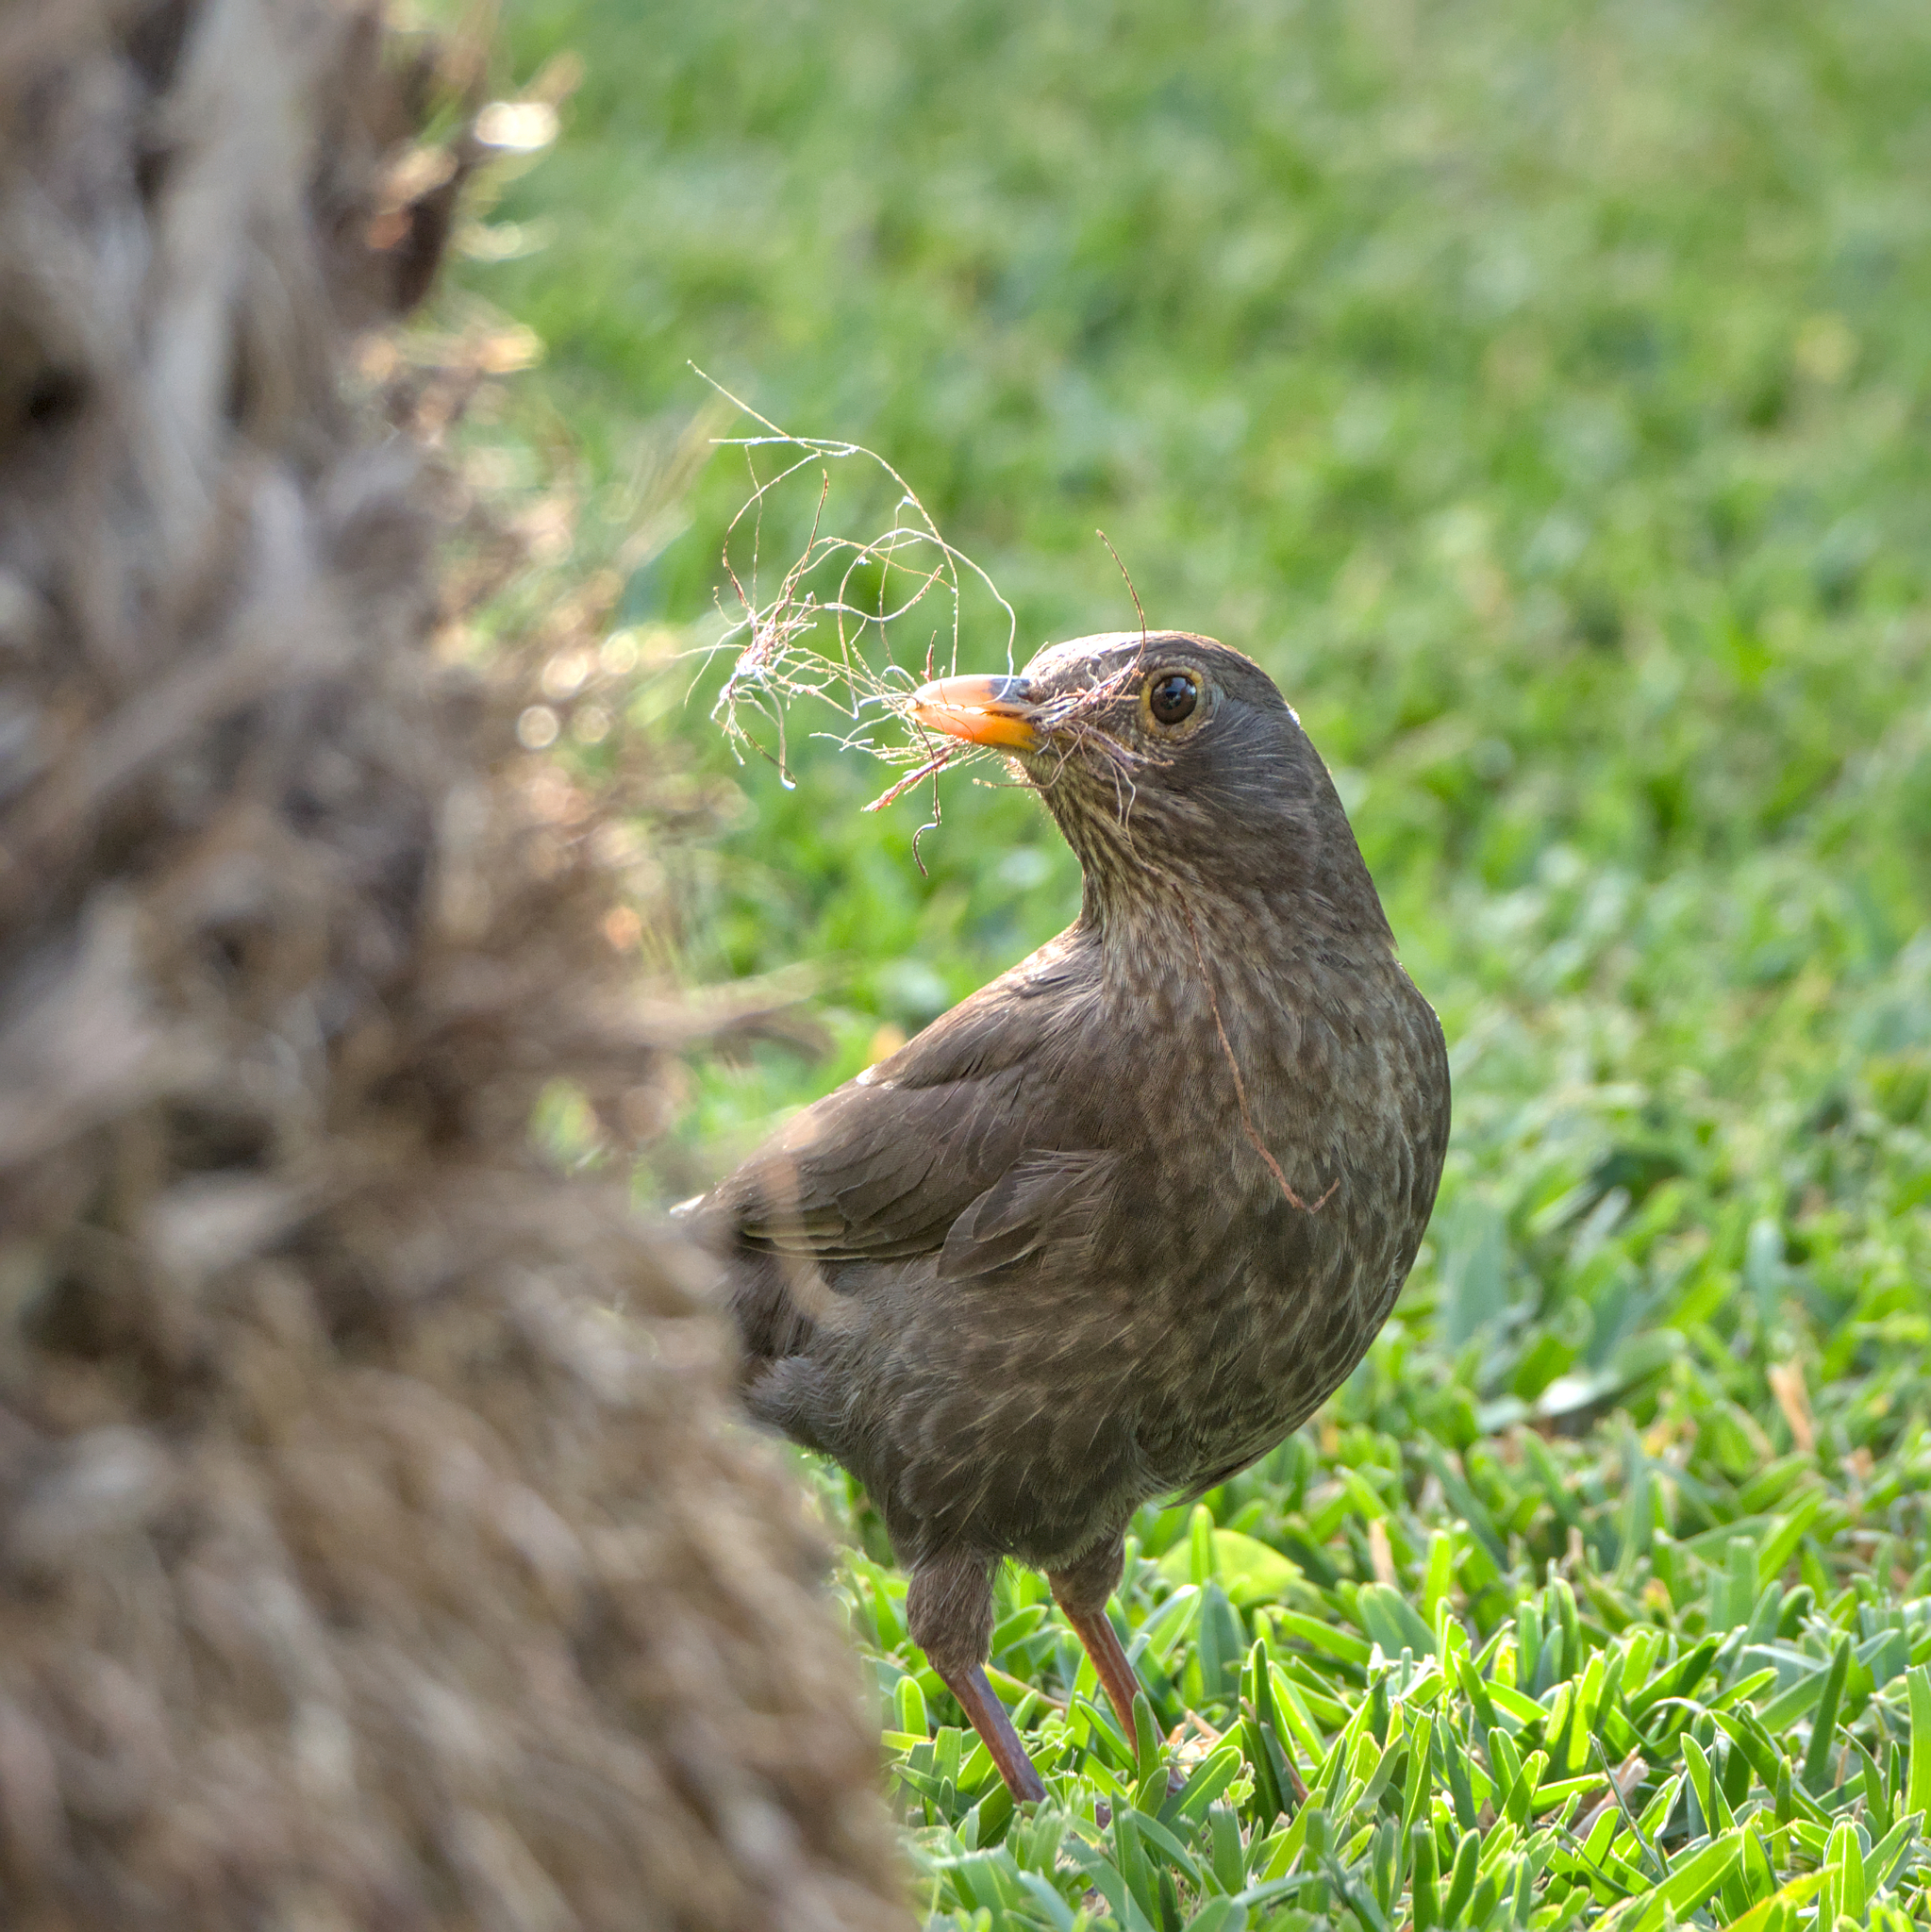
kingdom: Animalia
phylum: Chordata
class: Aves
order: Passeriformes
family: Turdidae
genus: Turdus
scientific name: Turdus merula
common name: Common blackbird
